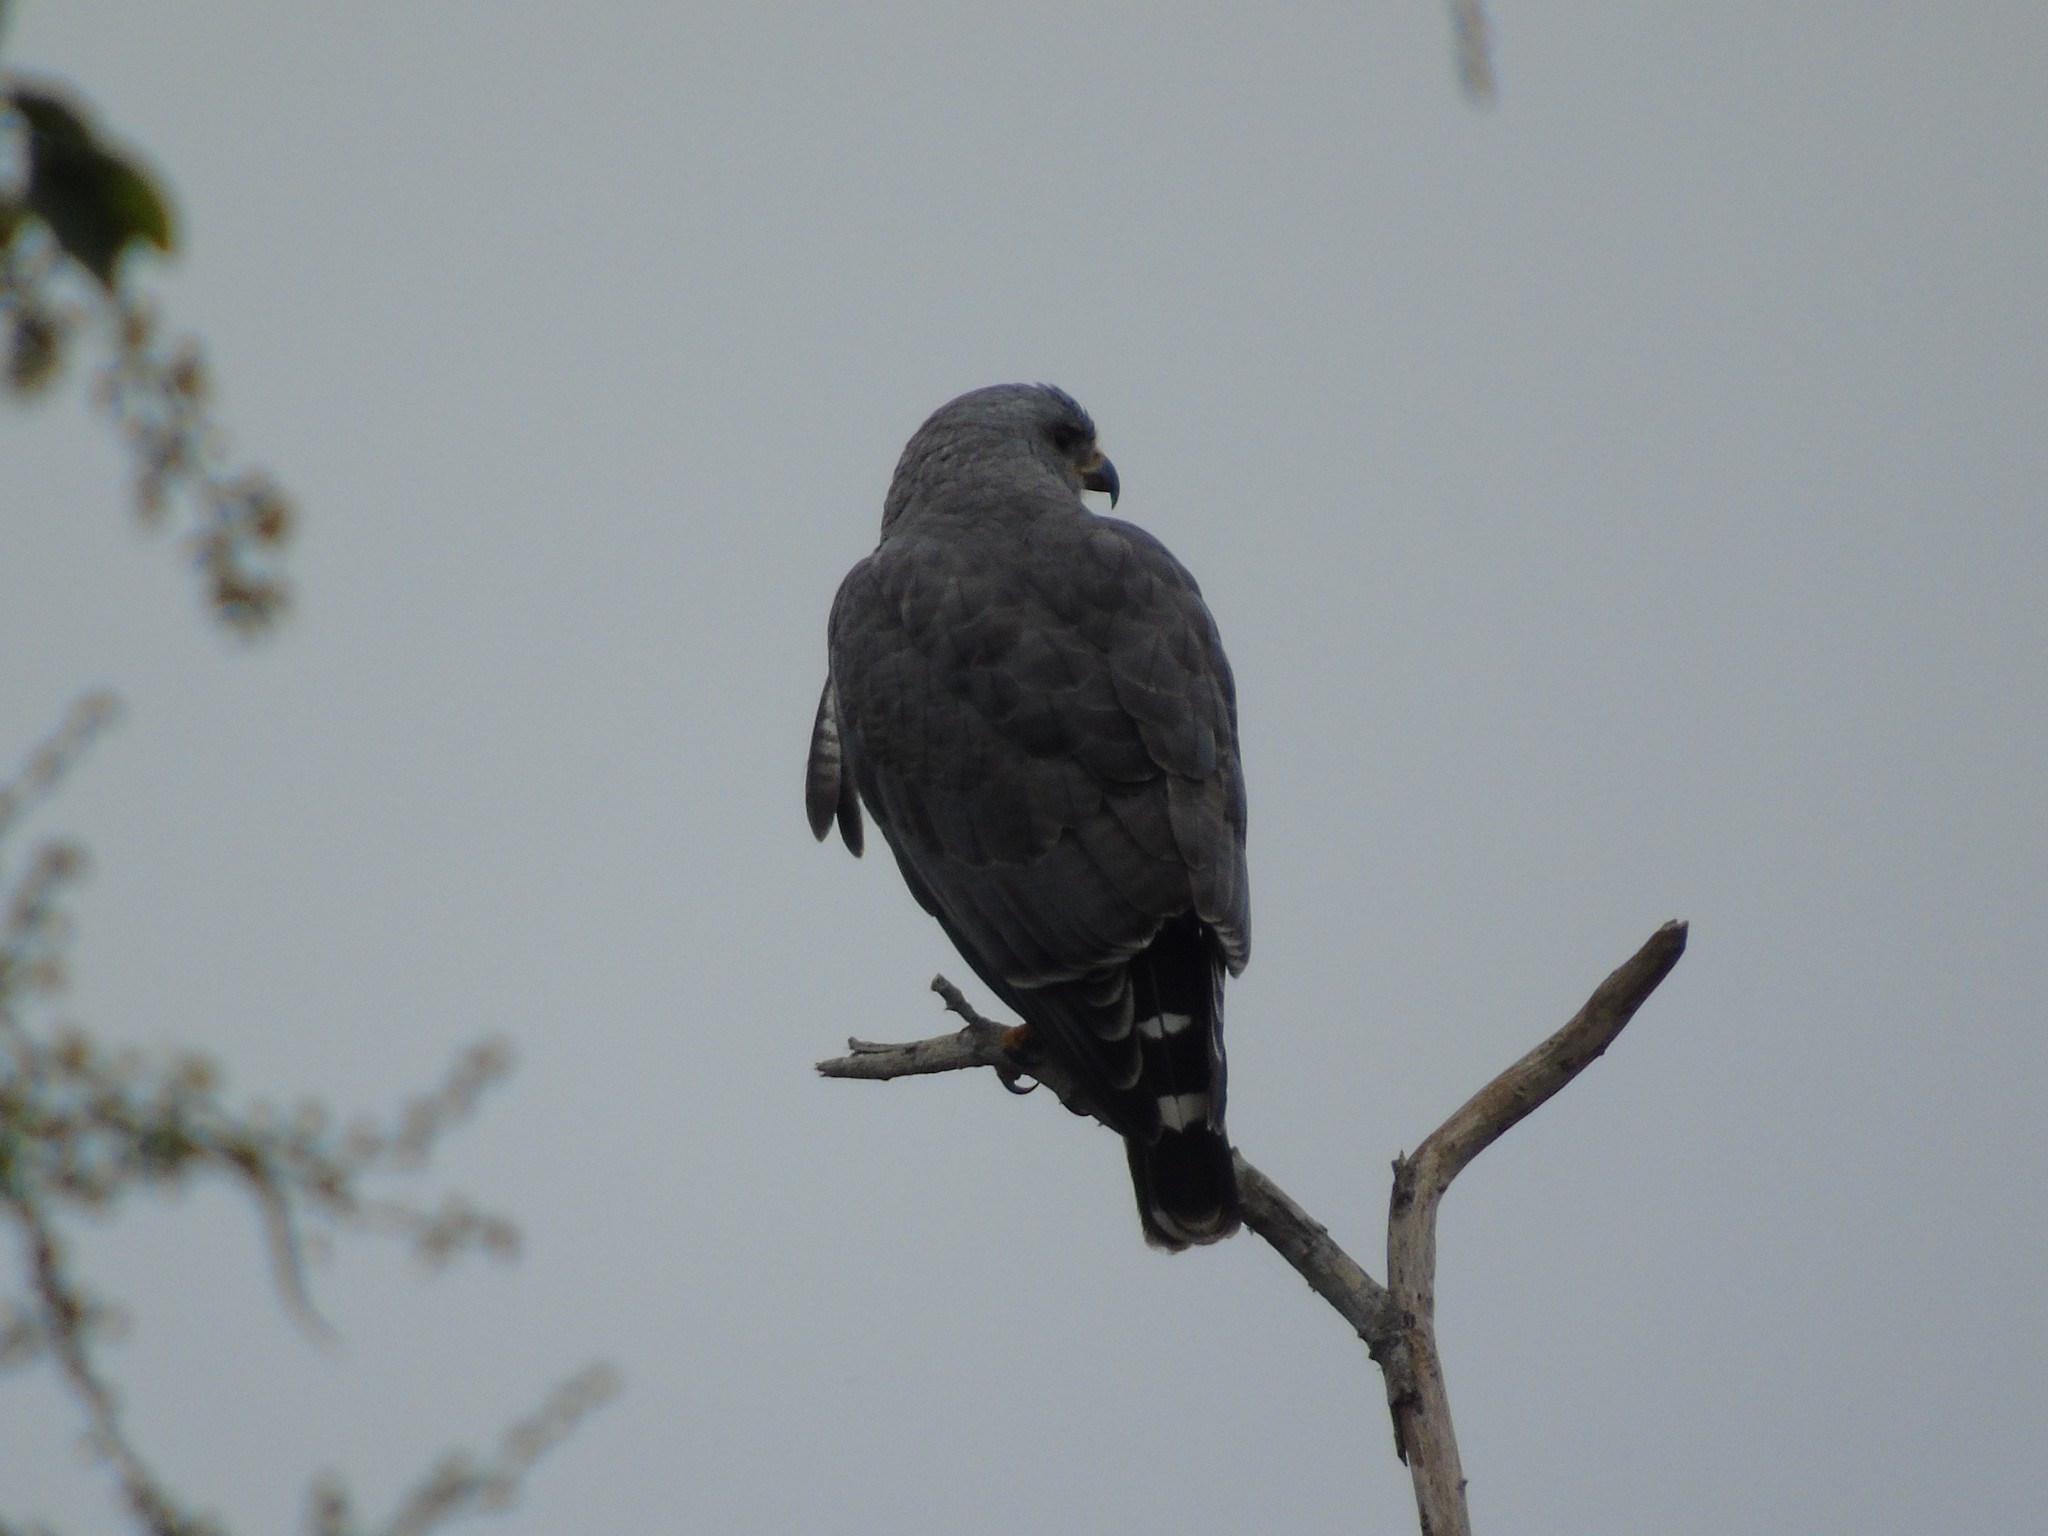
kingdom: Animalia
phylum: Chordata
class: Aves
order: Accipitriformes
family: Accipitridae
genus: Buteo
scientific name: Buteo nitidus
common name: Grey-lined hawk
